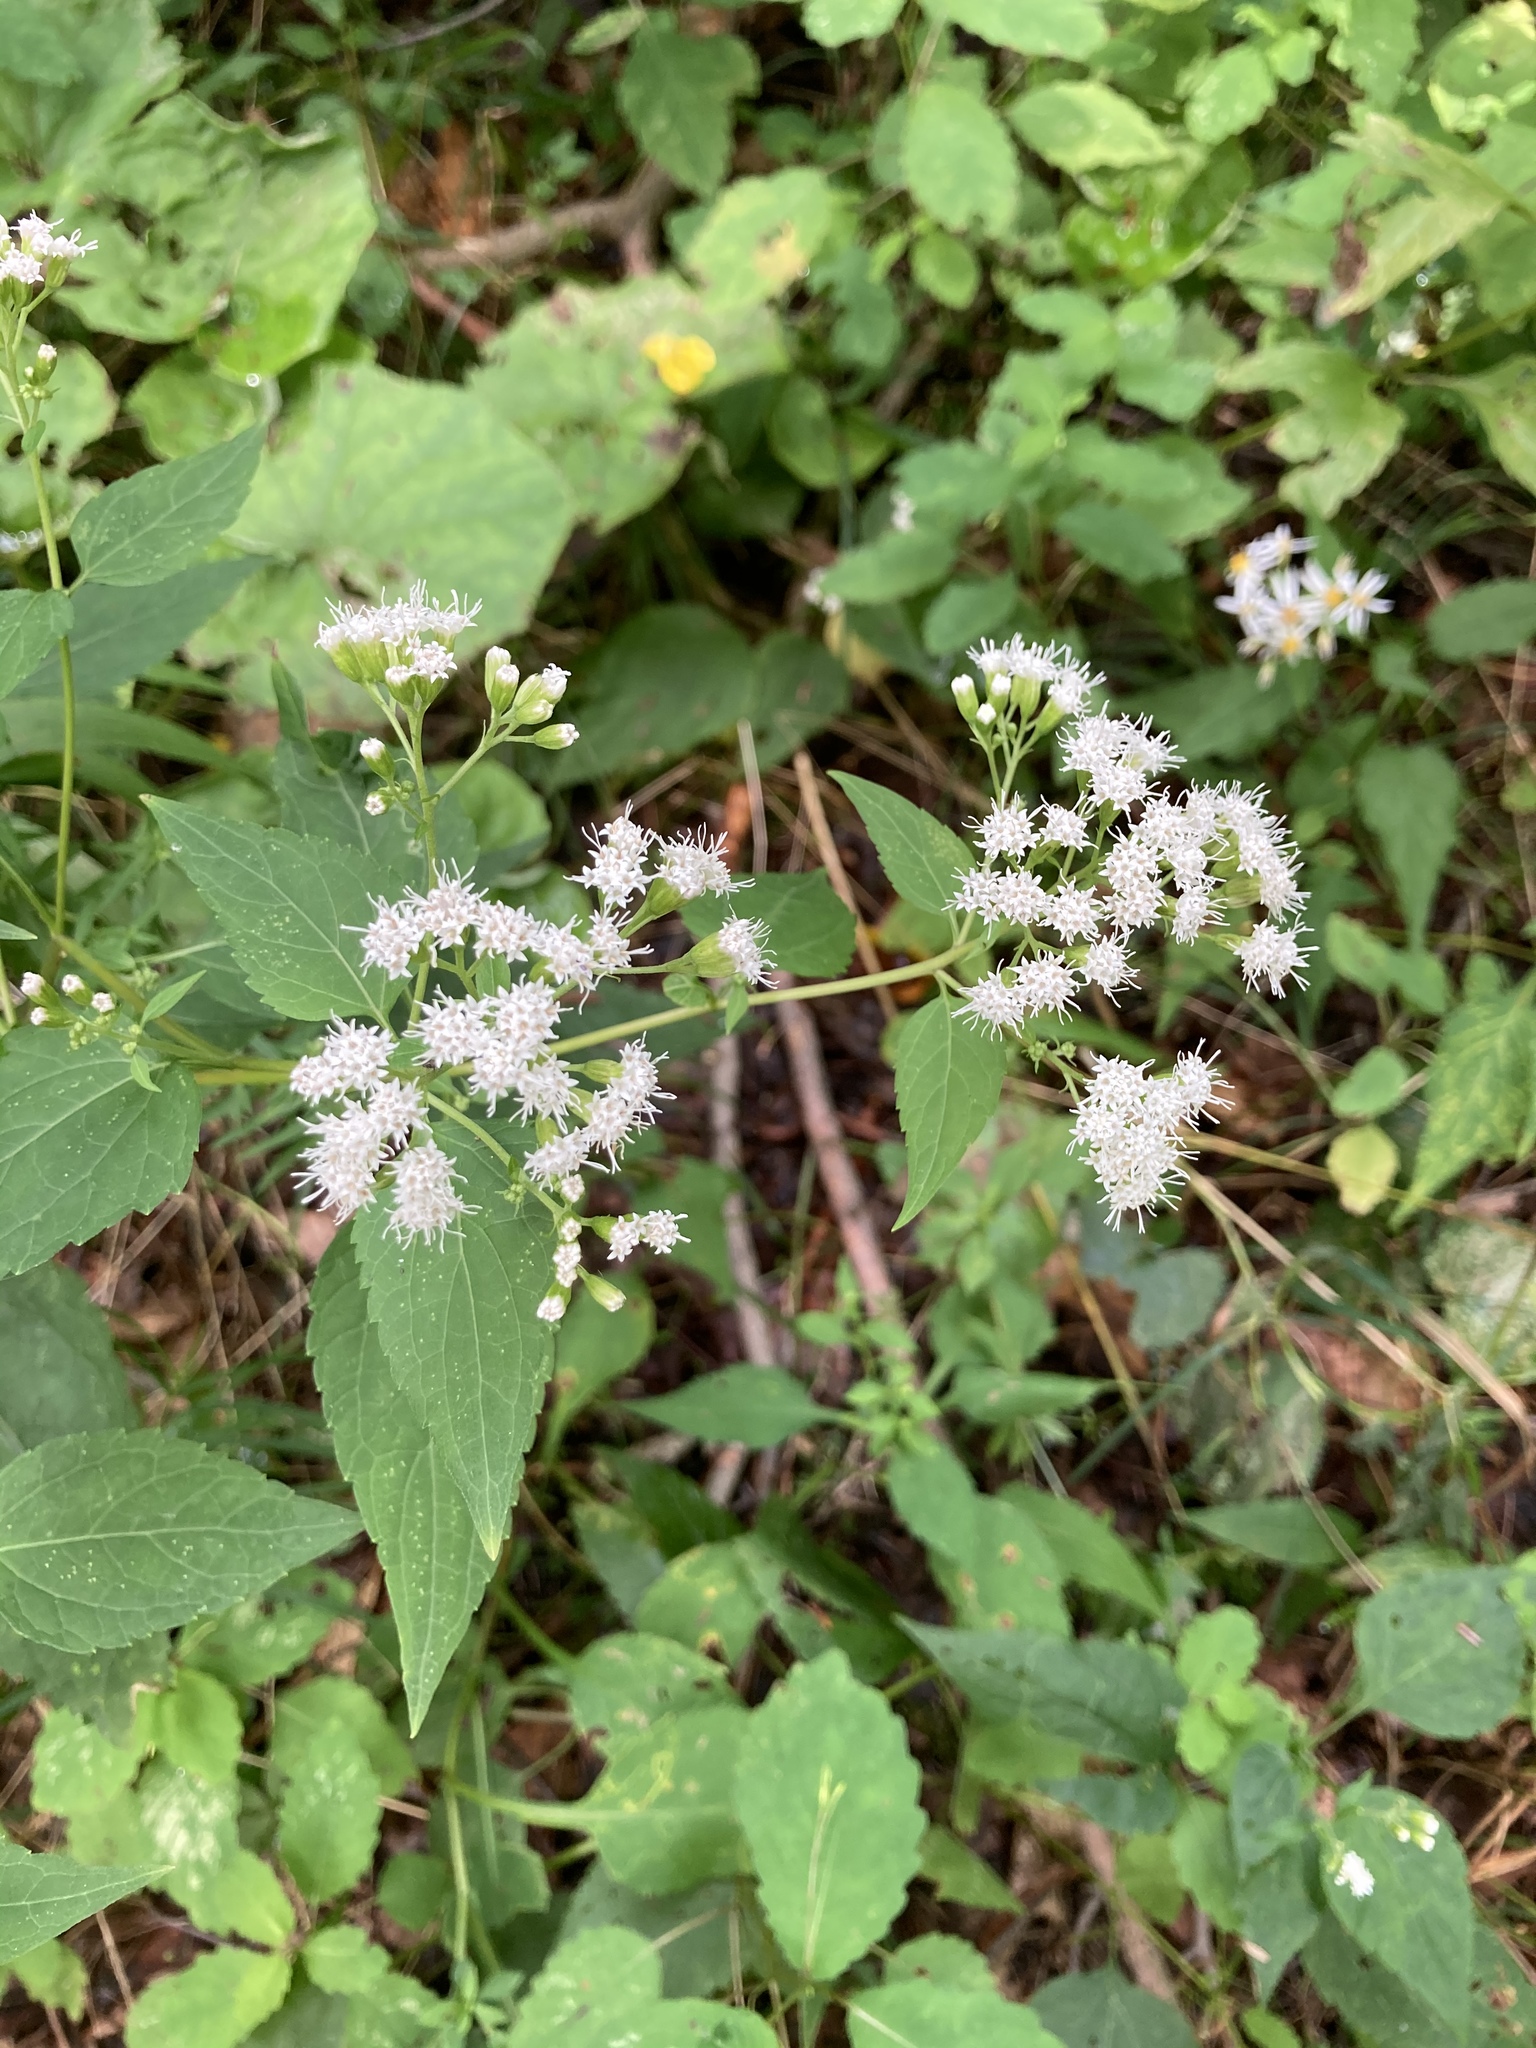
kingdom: Plantae
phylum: Tracheophyta
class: Magnoliopsida
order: Asterales
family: Asteraceae
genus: Ageratina
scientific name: Ageratina altissima
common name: White snakeroot
